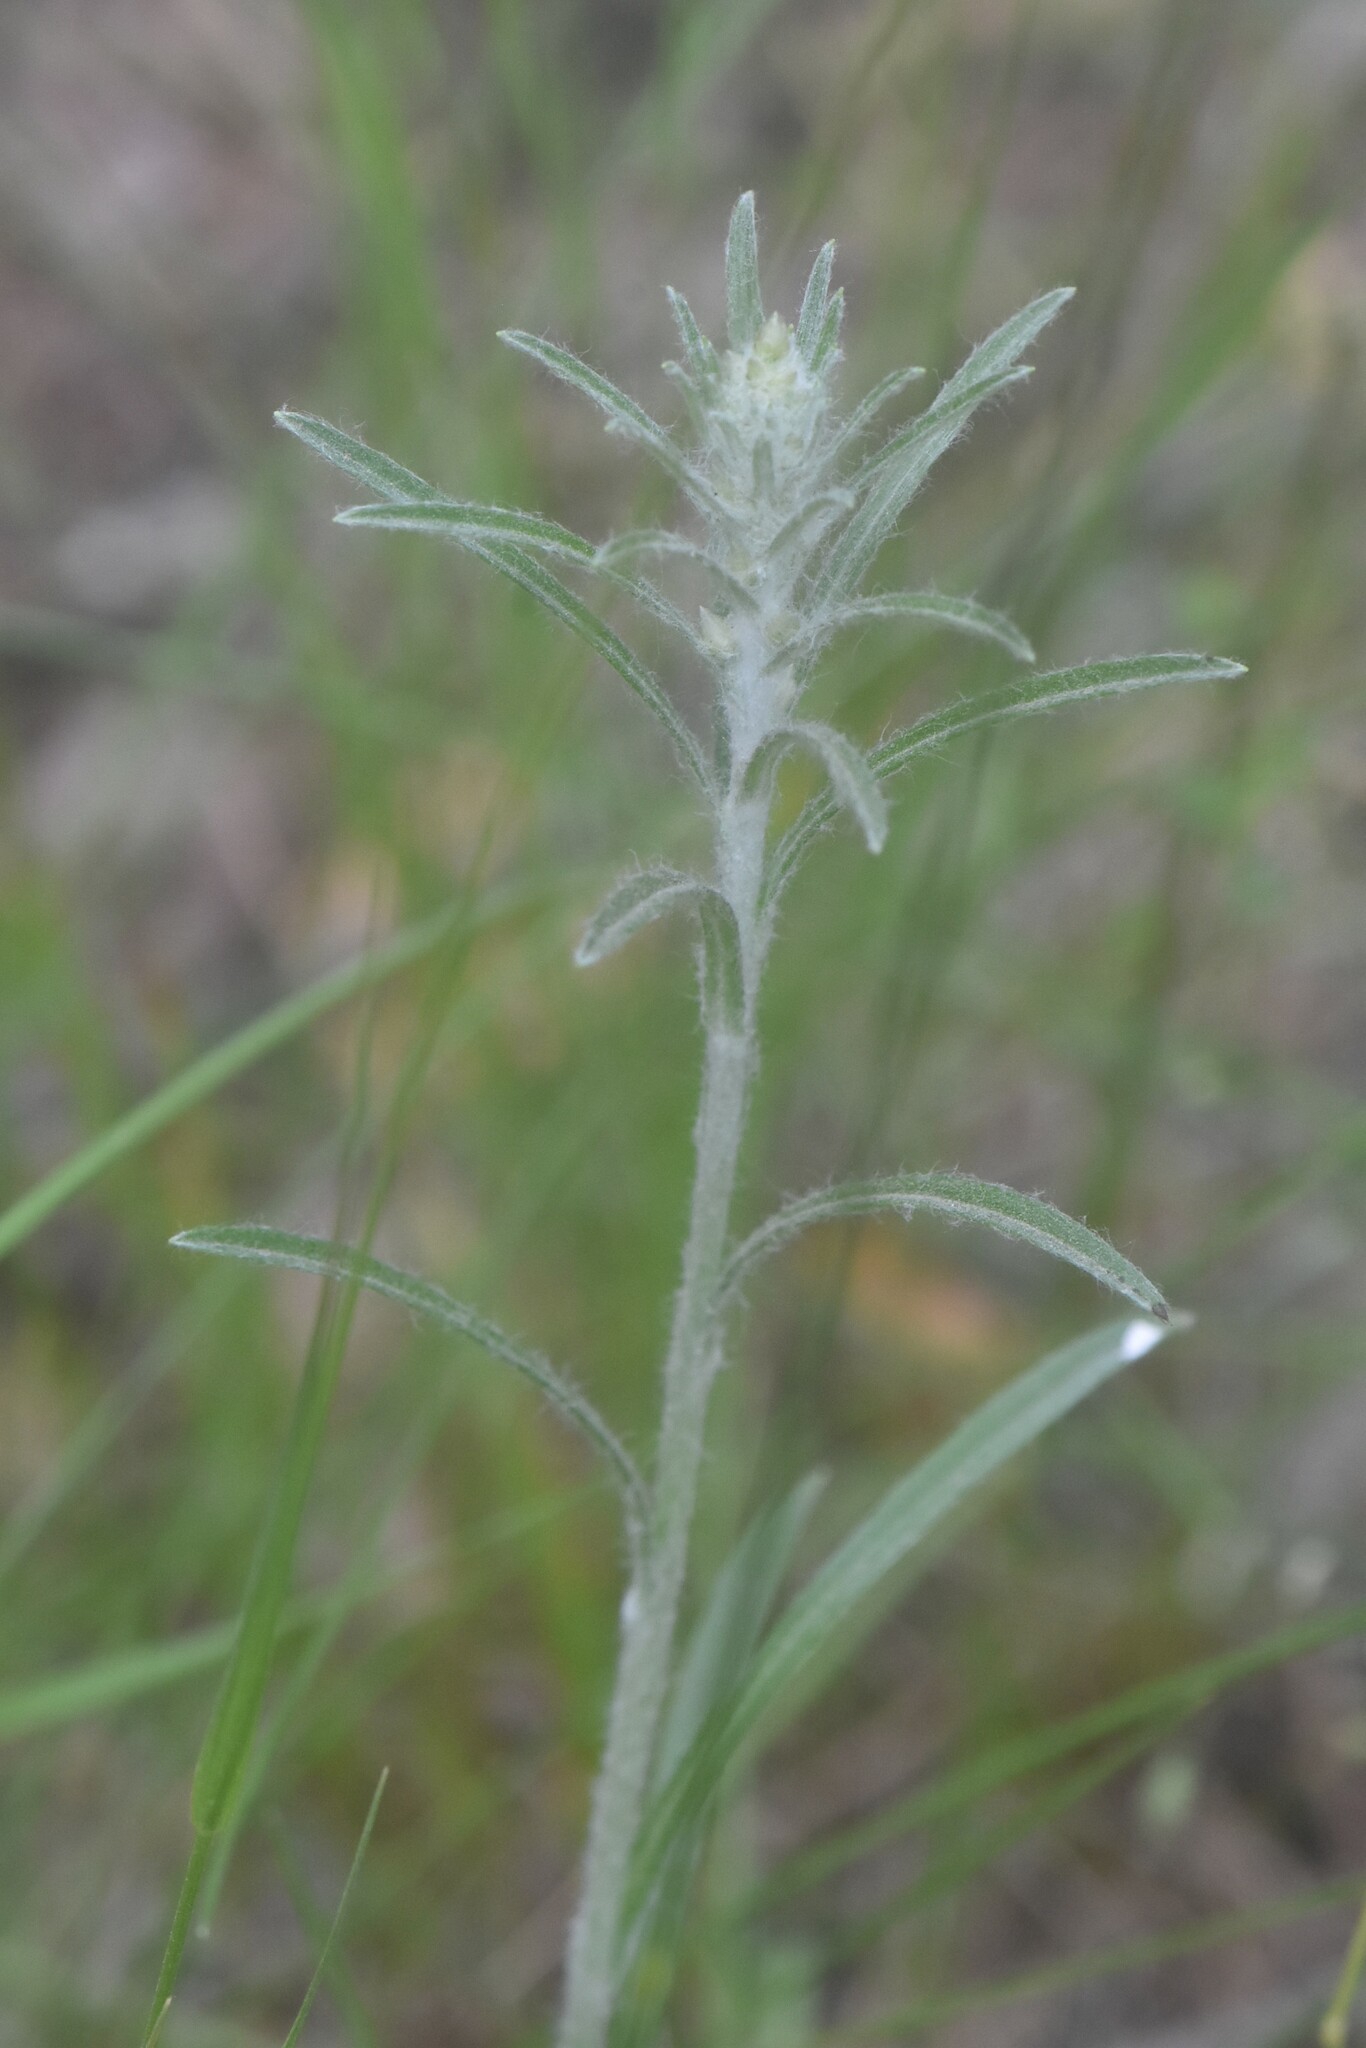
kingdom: Plantae
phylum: Tracheophyta
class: Magnoliopsida
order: Asterales
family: Asteraceae
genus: Omalotheca
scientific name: Omalotheca sylvatica
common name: Heath cudweed
